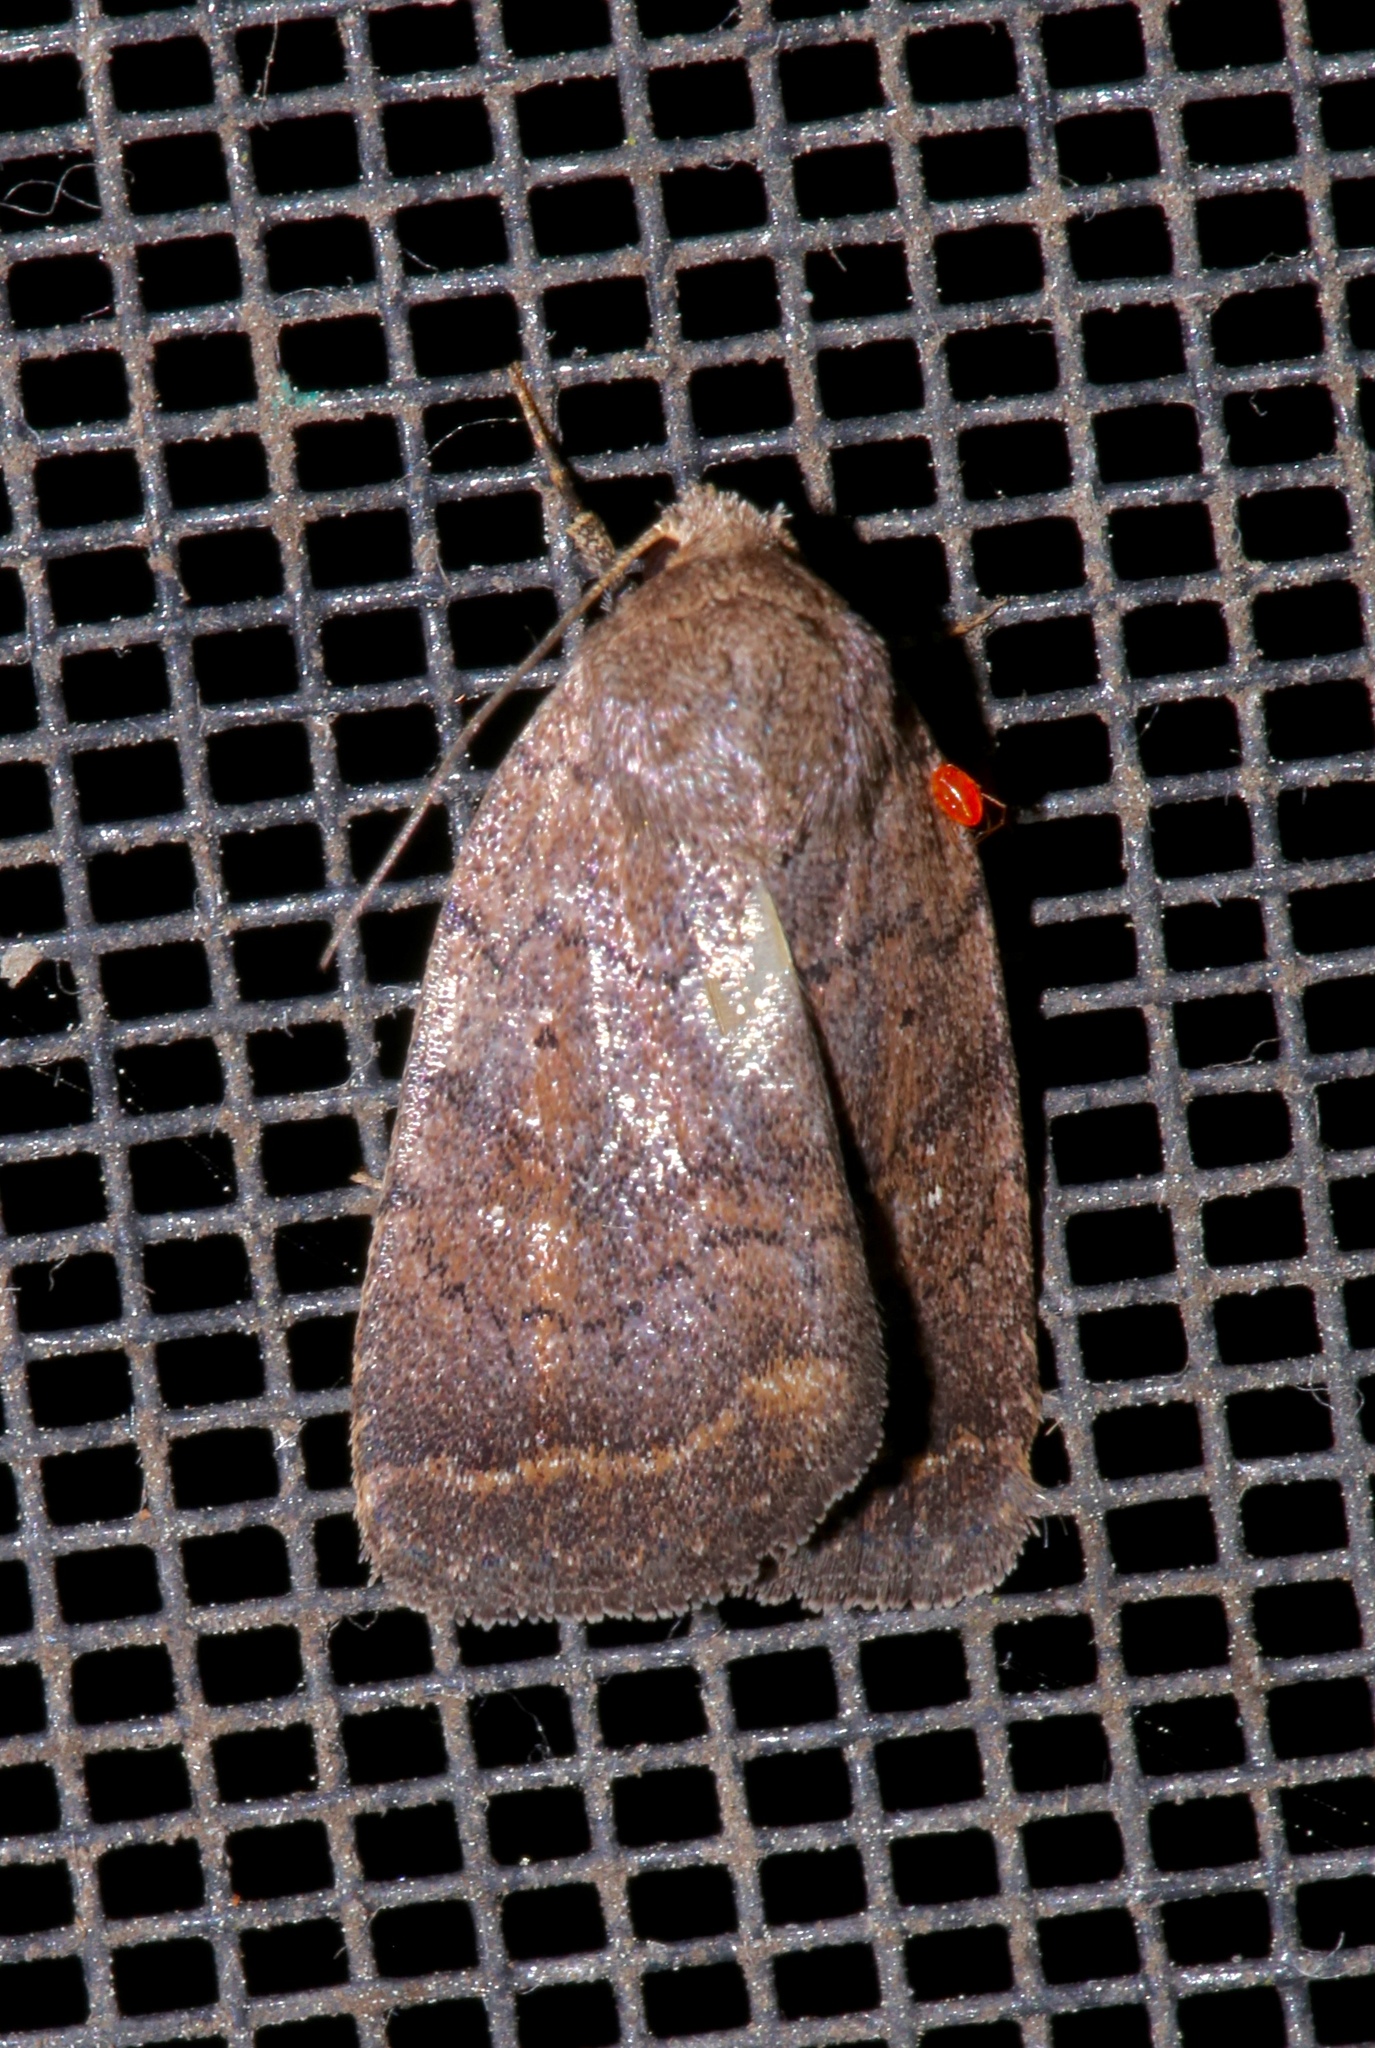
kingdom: Animalia
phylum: Arthropoda
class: Insecta
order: Lepidoptera
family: Noctuidae
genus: Athetis
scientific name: Athetis tarda
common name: Slowpoke moth
